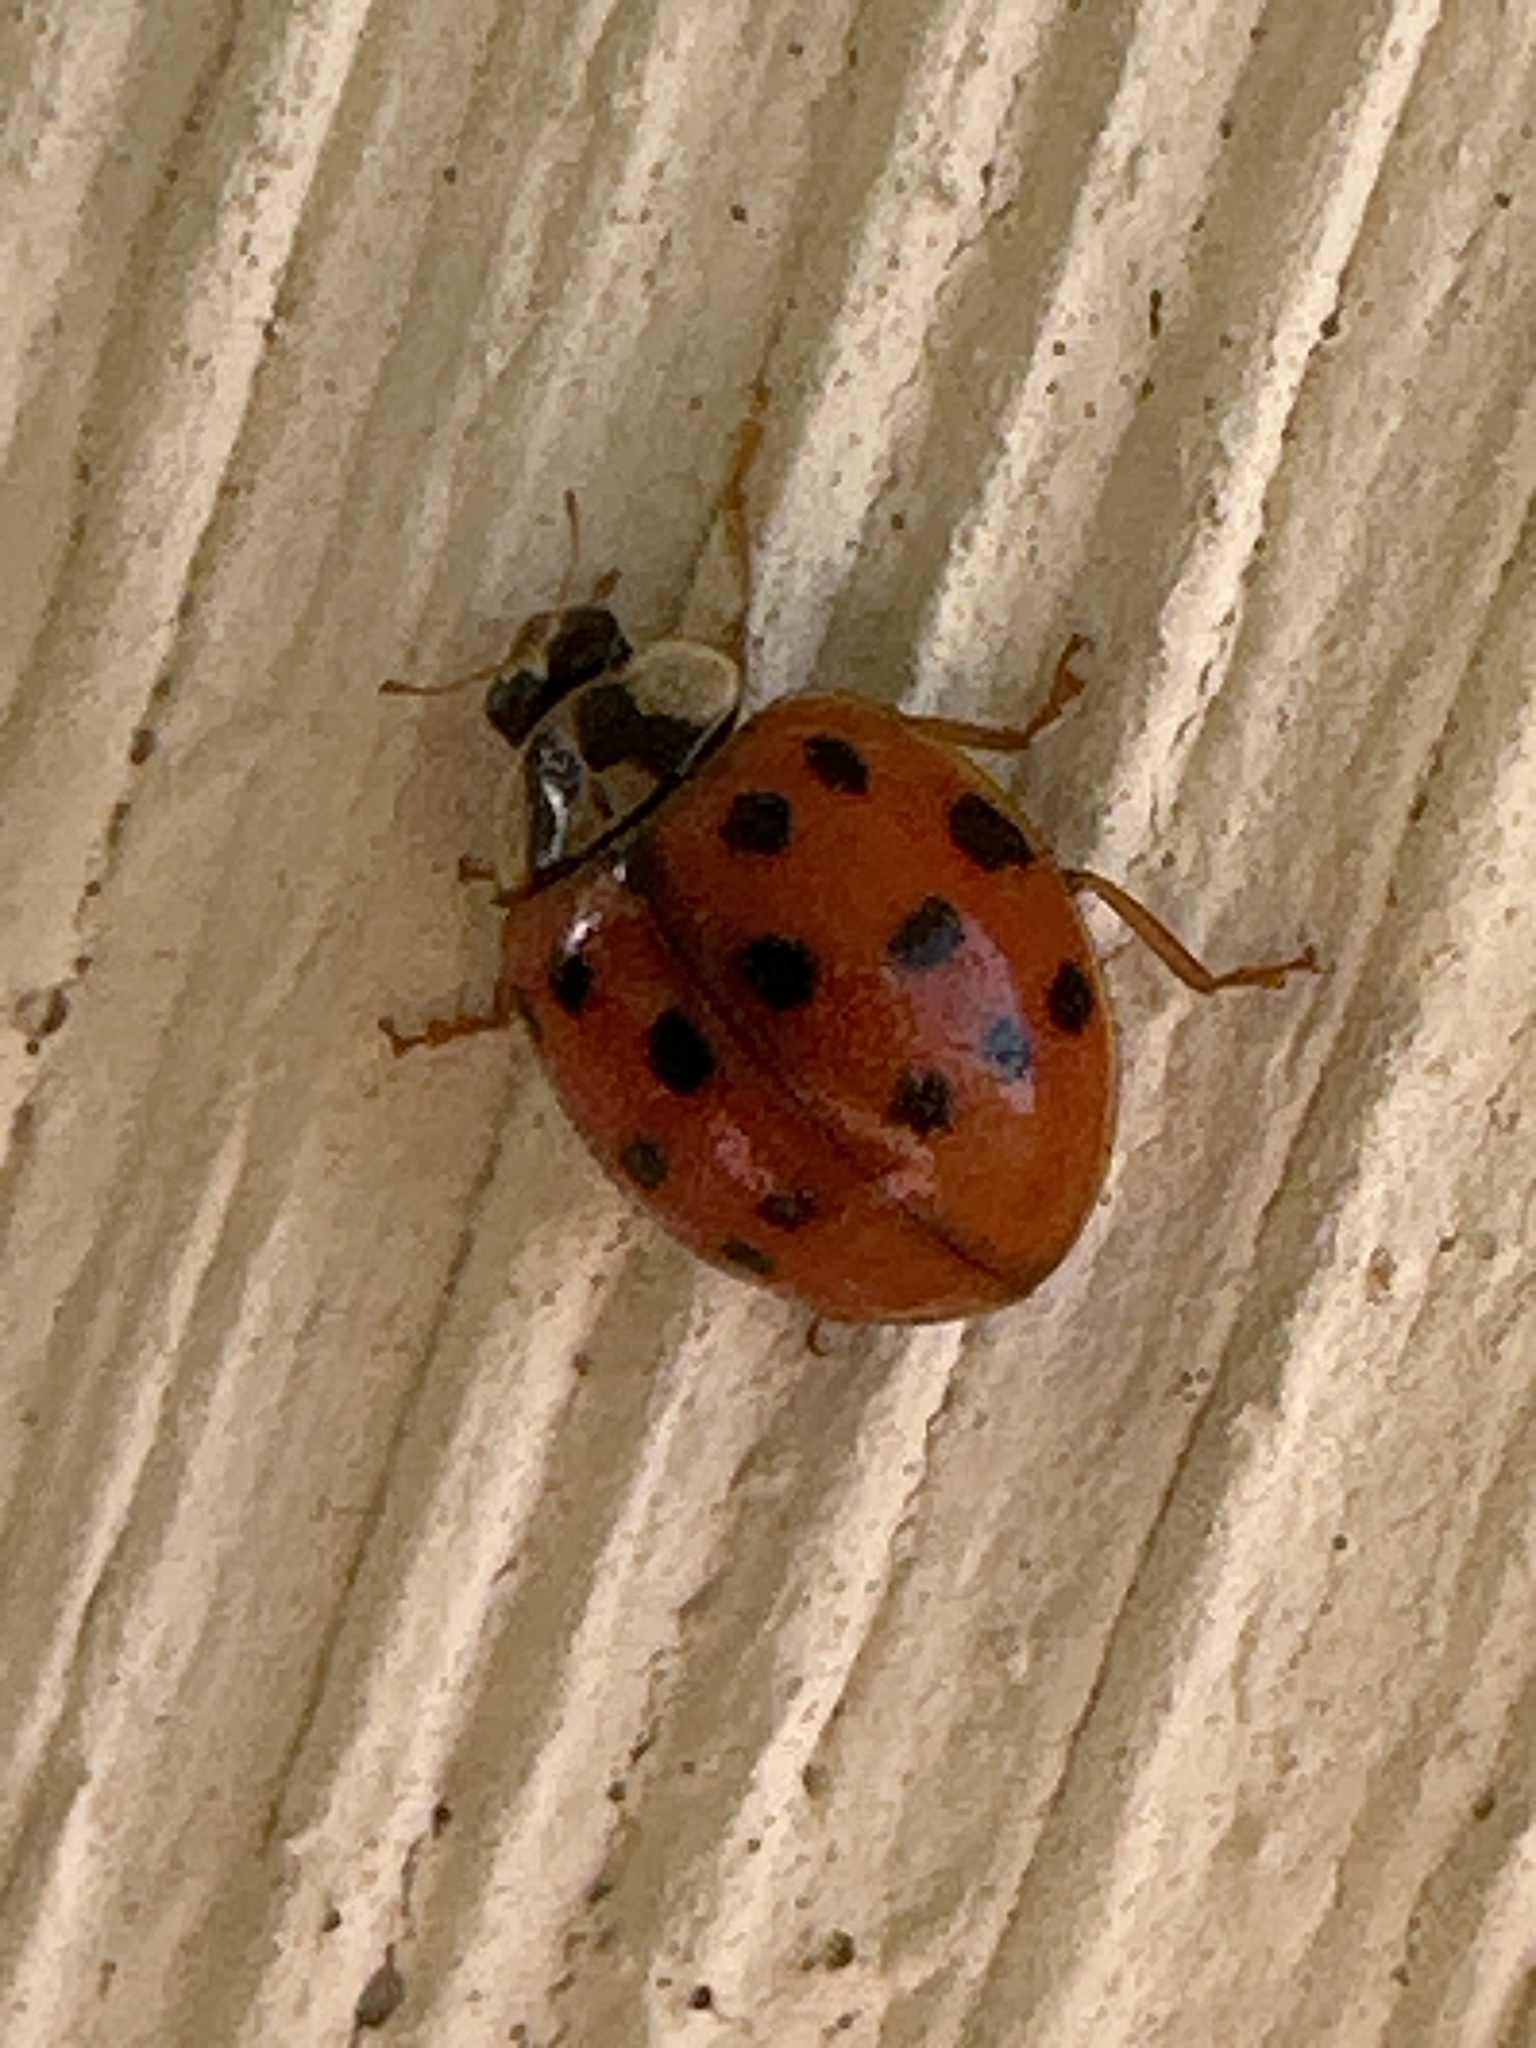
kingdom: Animalia
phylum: Arthropoda
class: Insecta
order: Coleoptera
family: Coccinellidae
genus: Harmonia
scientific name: Harmonia axyridis
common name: Harlequin ladybird
